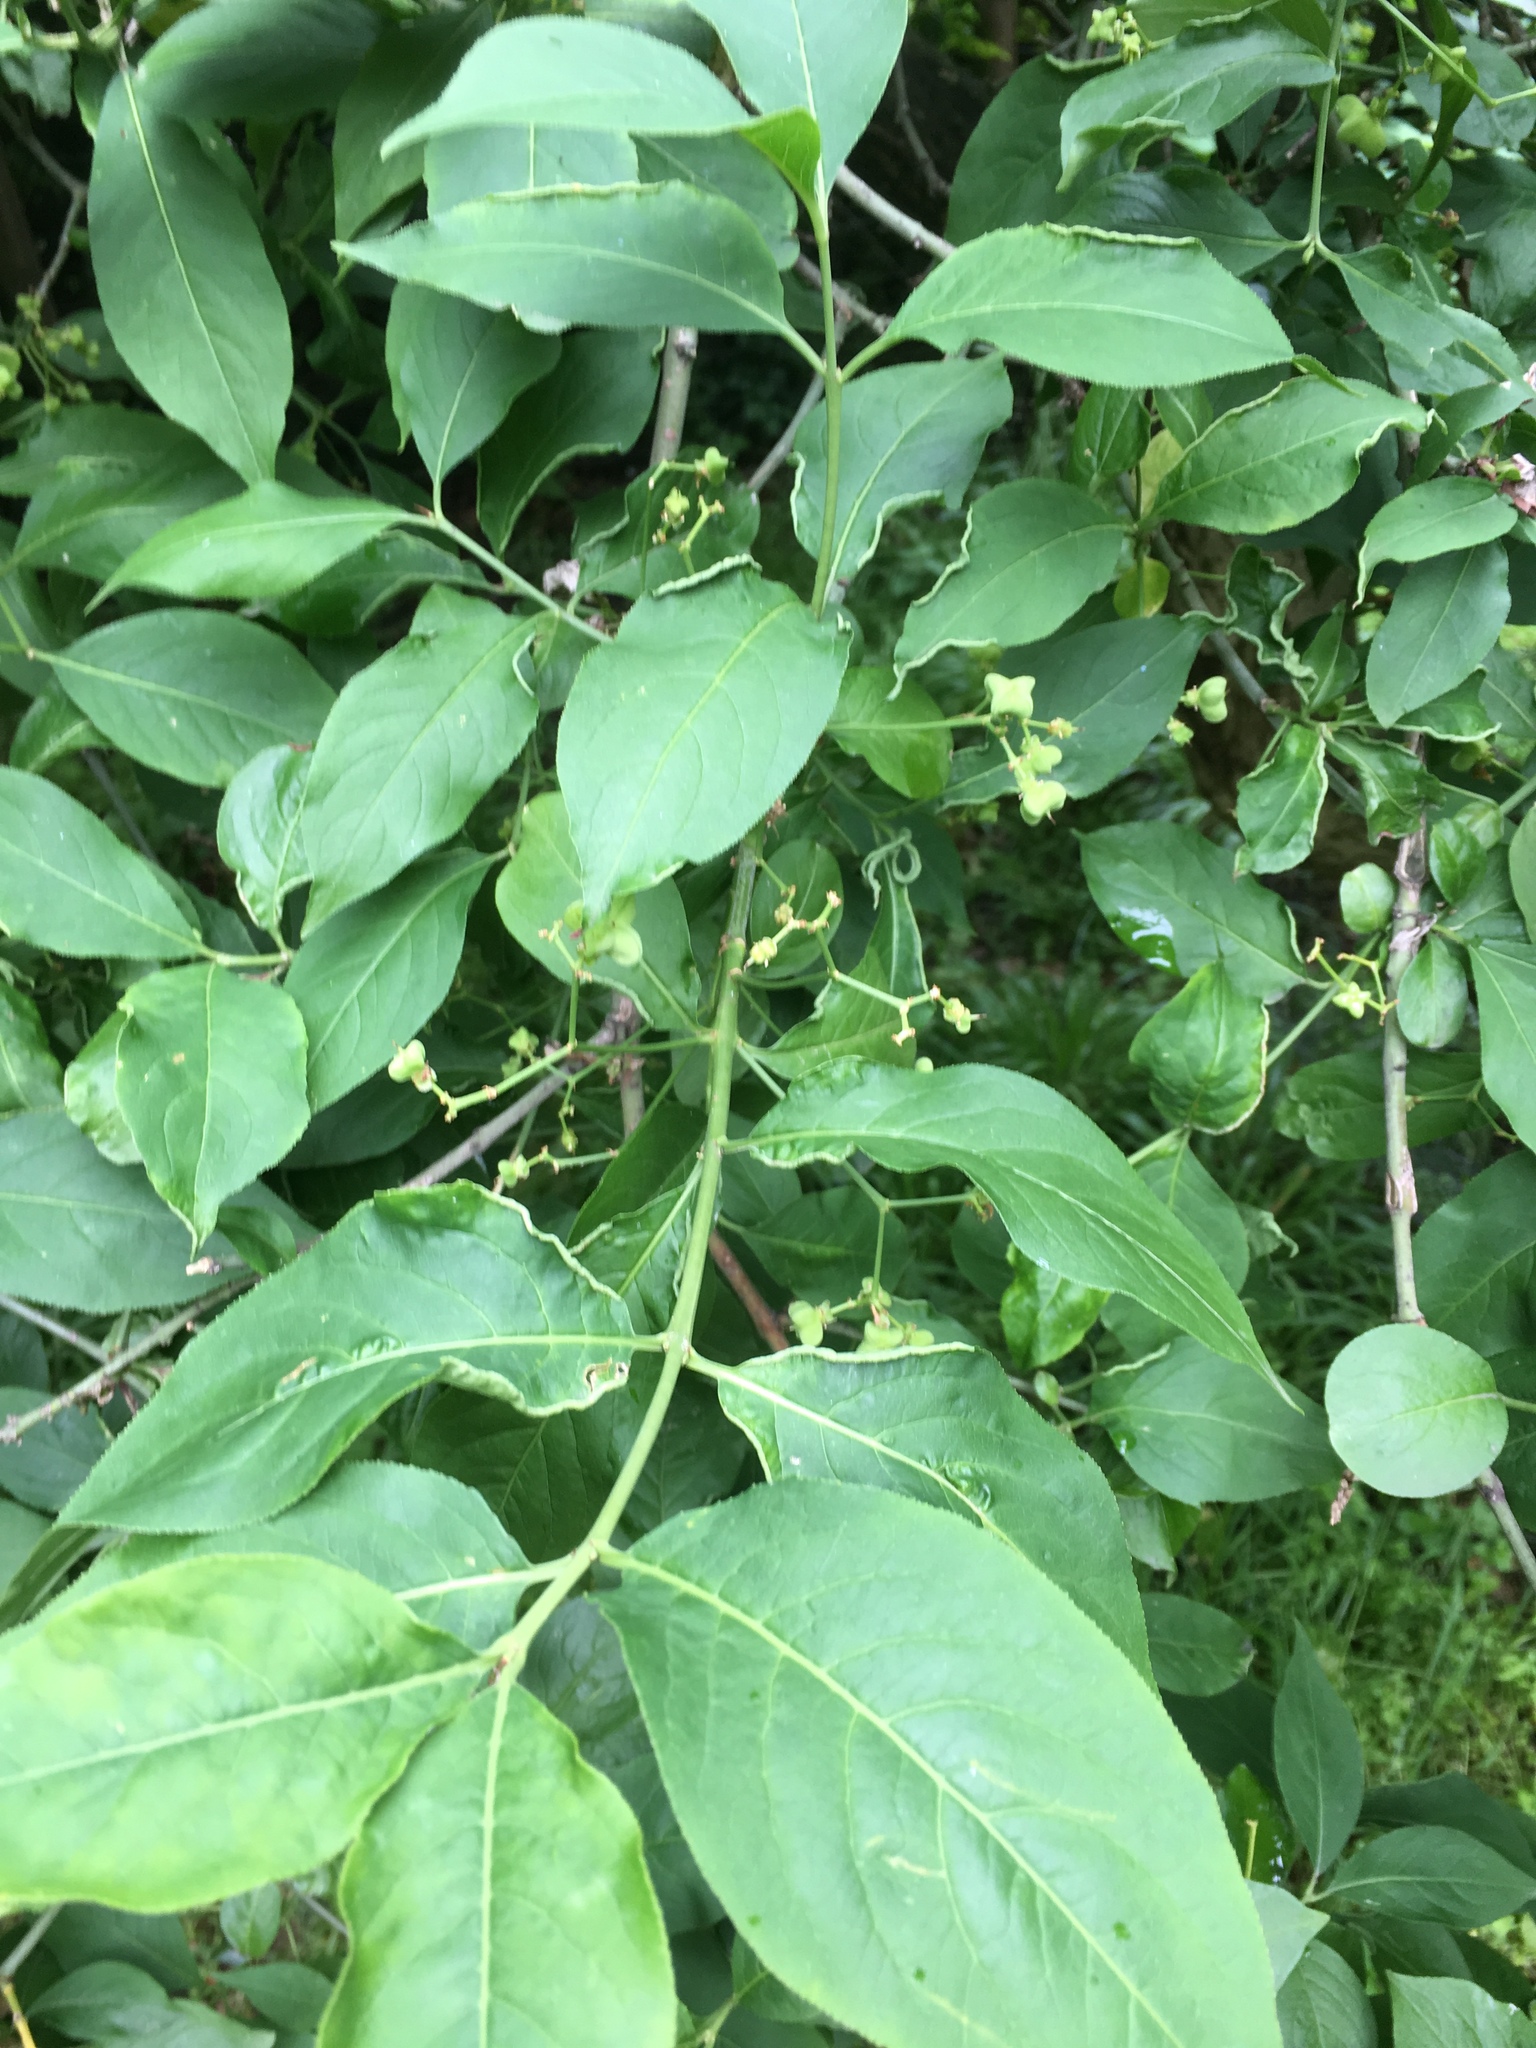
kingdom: Plantae
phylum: Tracheophyta
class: Magnoliopsida
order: Celastrales
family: Celastraceae
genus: Euonymus
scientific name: Euonymus europaeus
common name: Spindle
